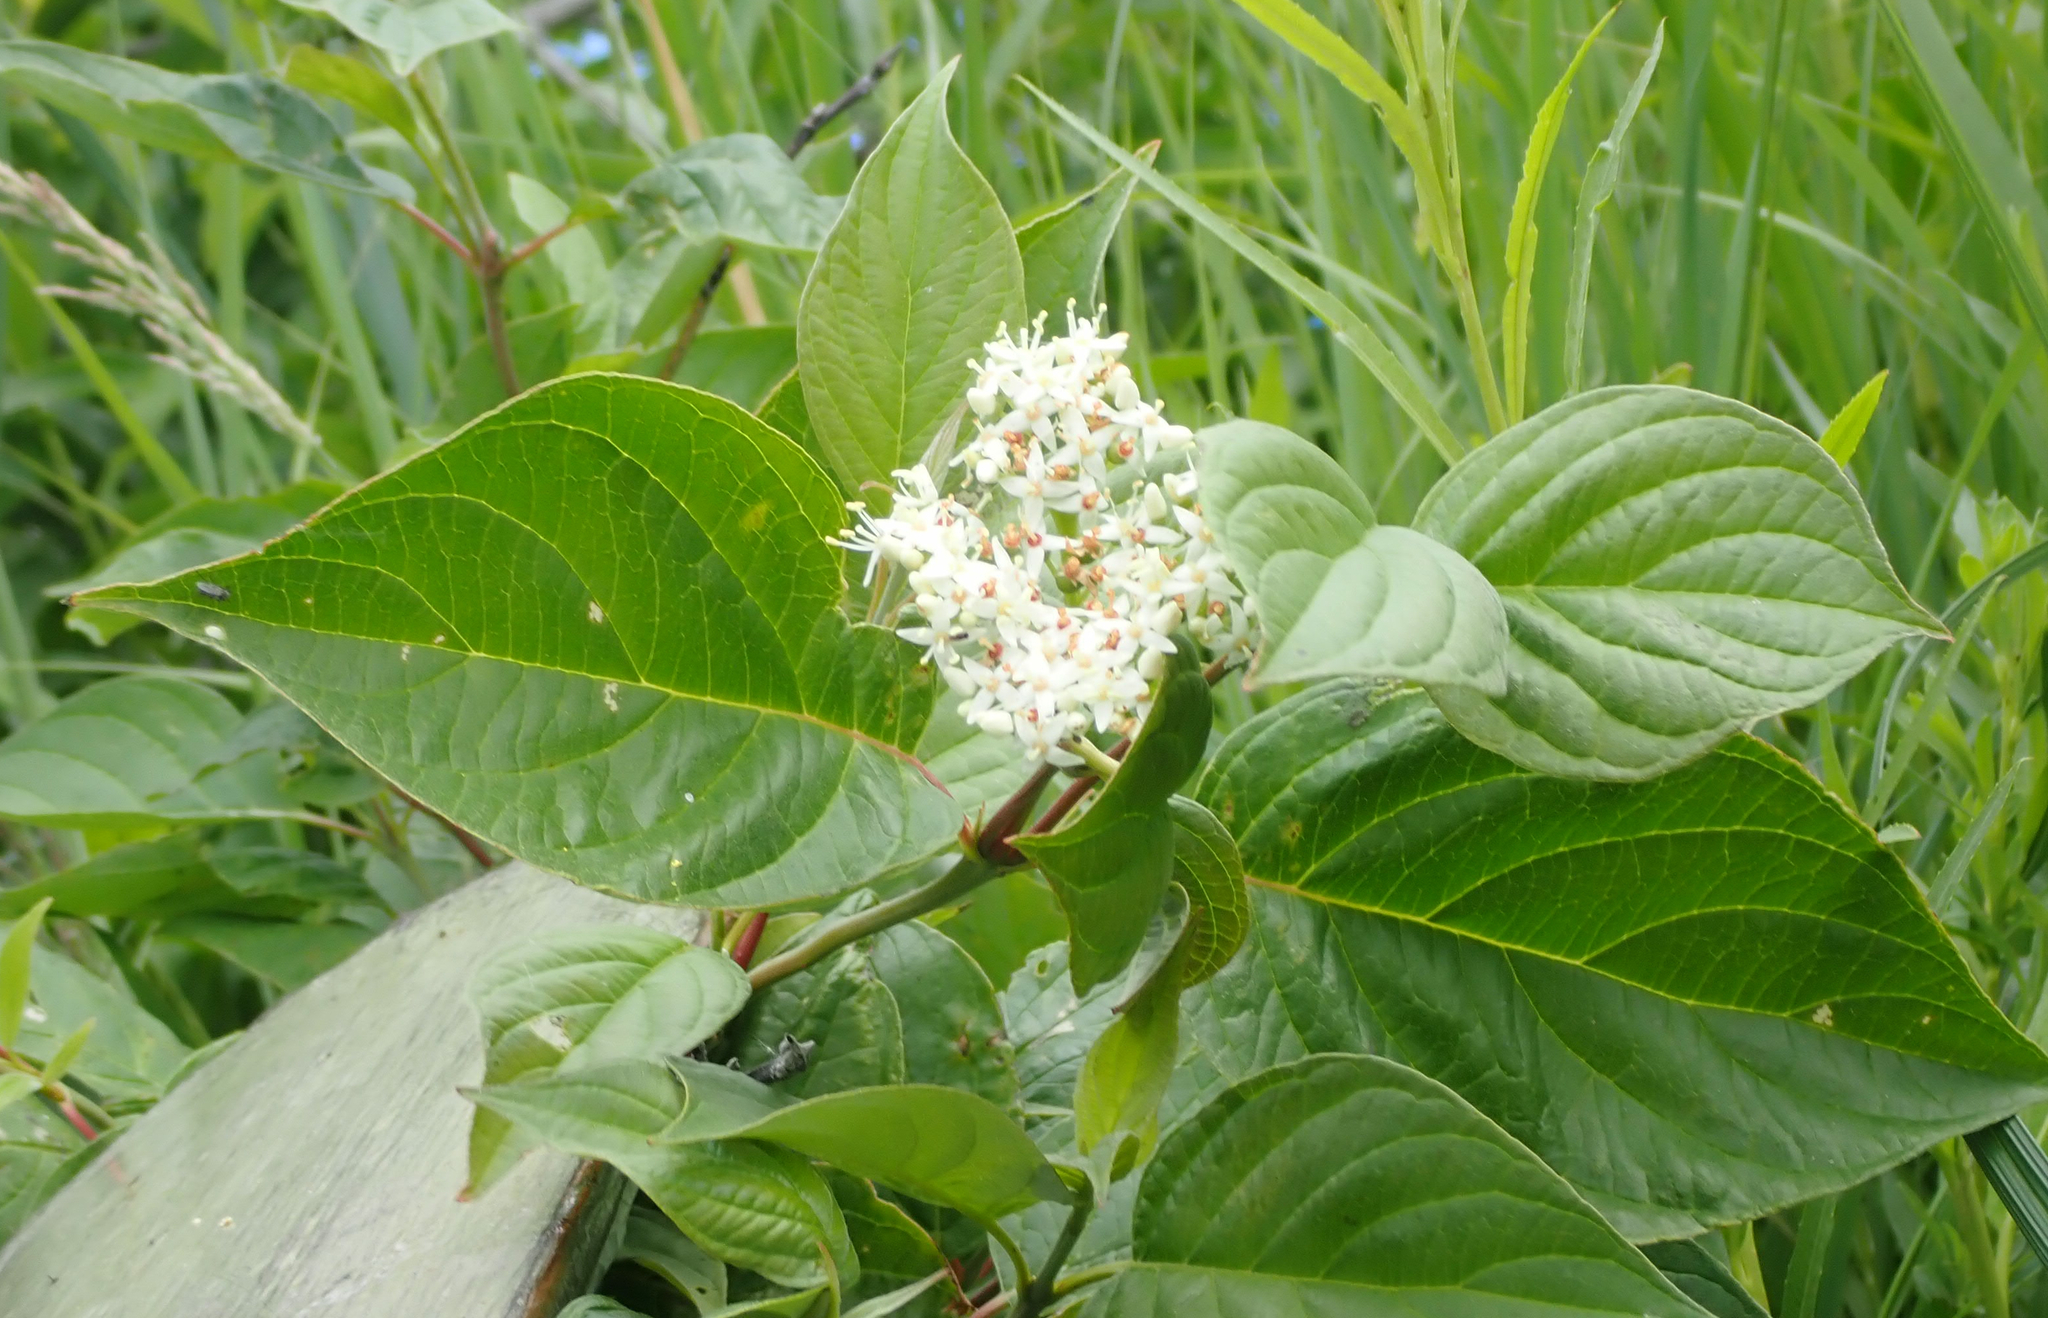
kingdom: Plantae
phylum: Tracheophyta
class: Magnoliopsida
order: Cornales
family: Cornaceae
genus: Cornus
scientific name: Cornus sericea
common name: Red-osier dogwood
